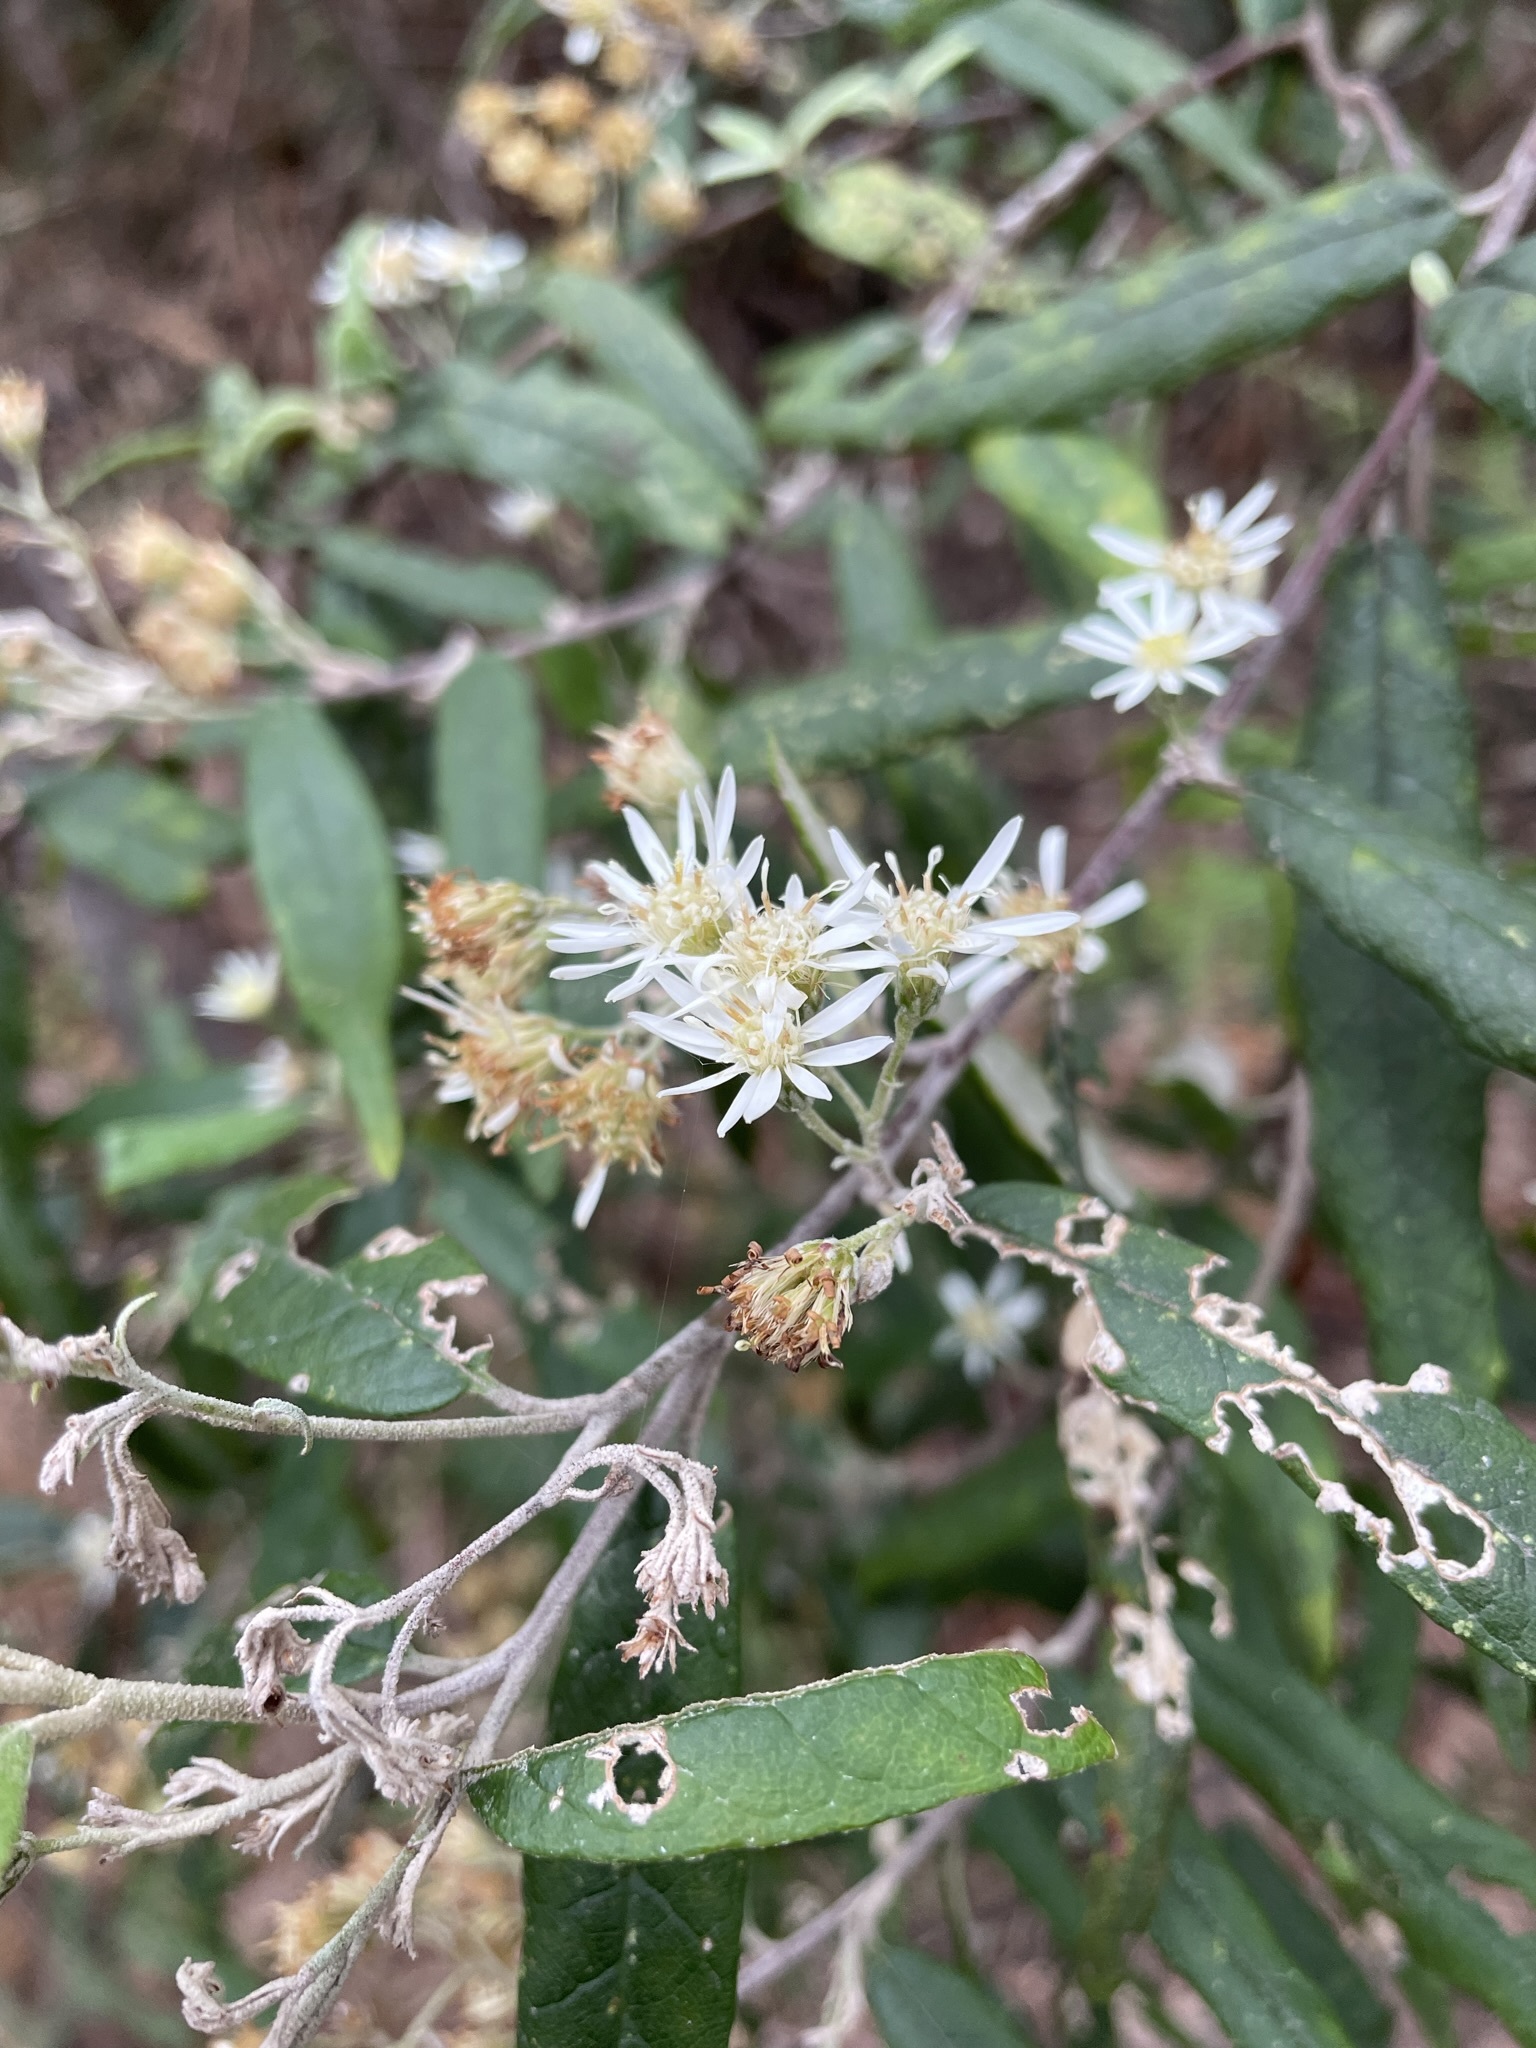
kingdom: Plantae
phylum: Tracheophyta
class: Magnoliopsida
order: Asterales
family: Asteraceae
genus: Olearia
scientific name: Olearia lirata
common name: Dusty daisybush
